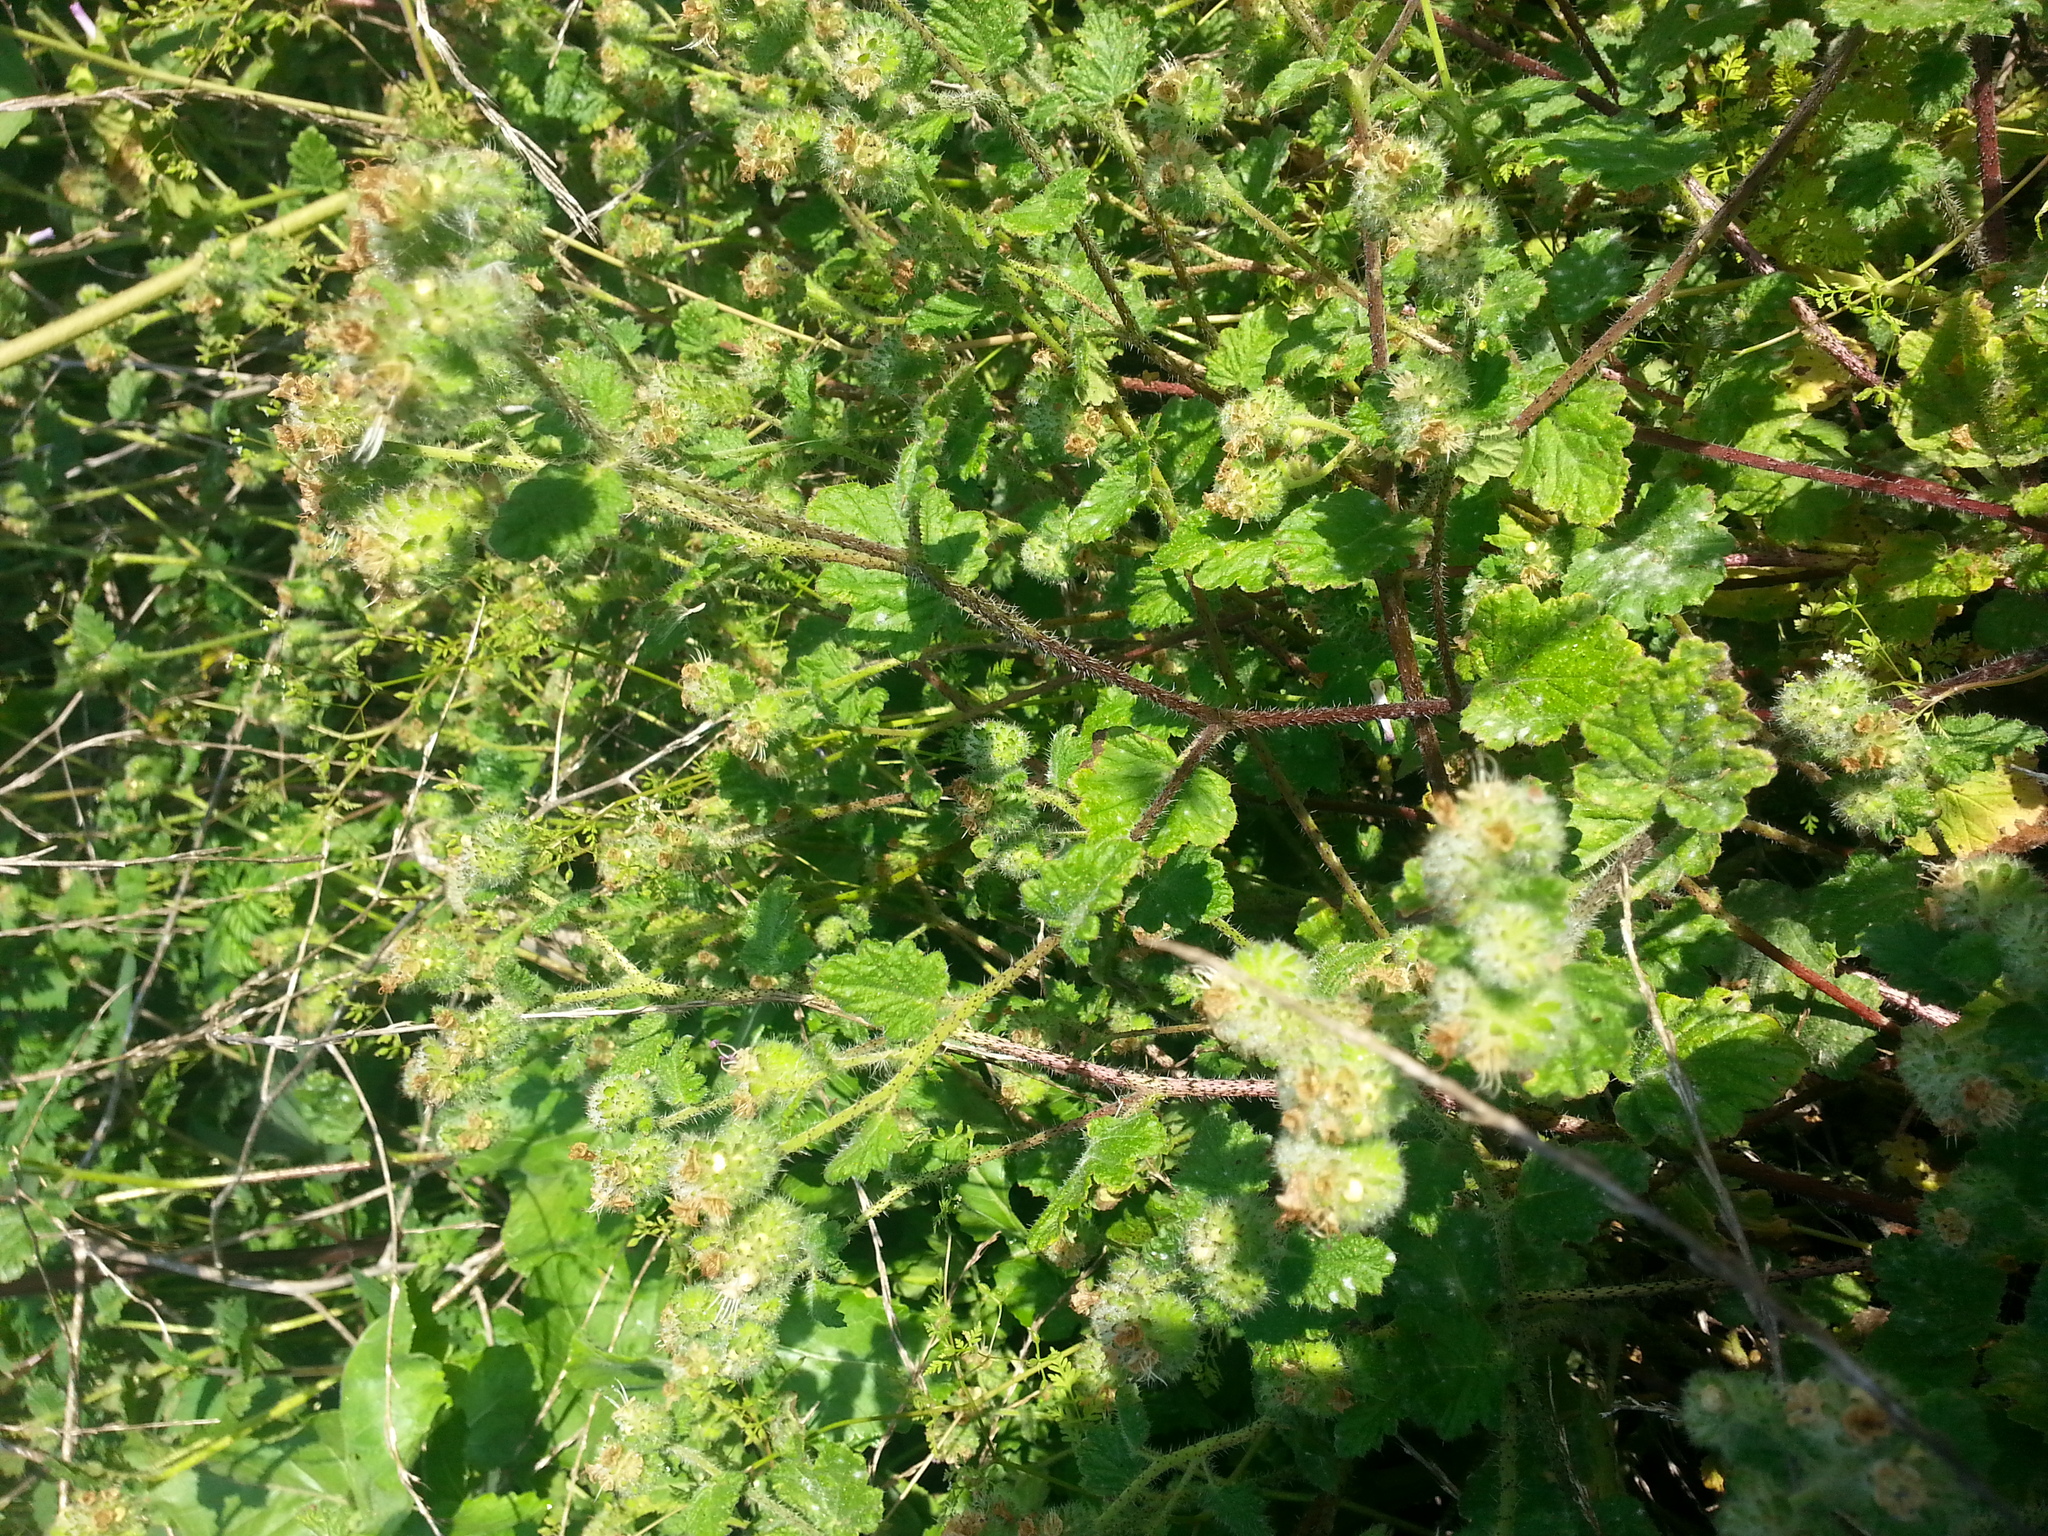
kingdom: Plantae
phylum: Tracheophyta
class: Magnoliopsida
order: Boraginales
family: Hydrophyllaceae
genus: Phacelia
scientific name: Phacelia malvifolia
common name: Mallow-leaf phacelia
